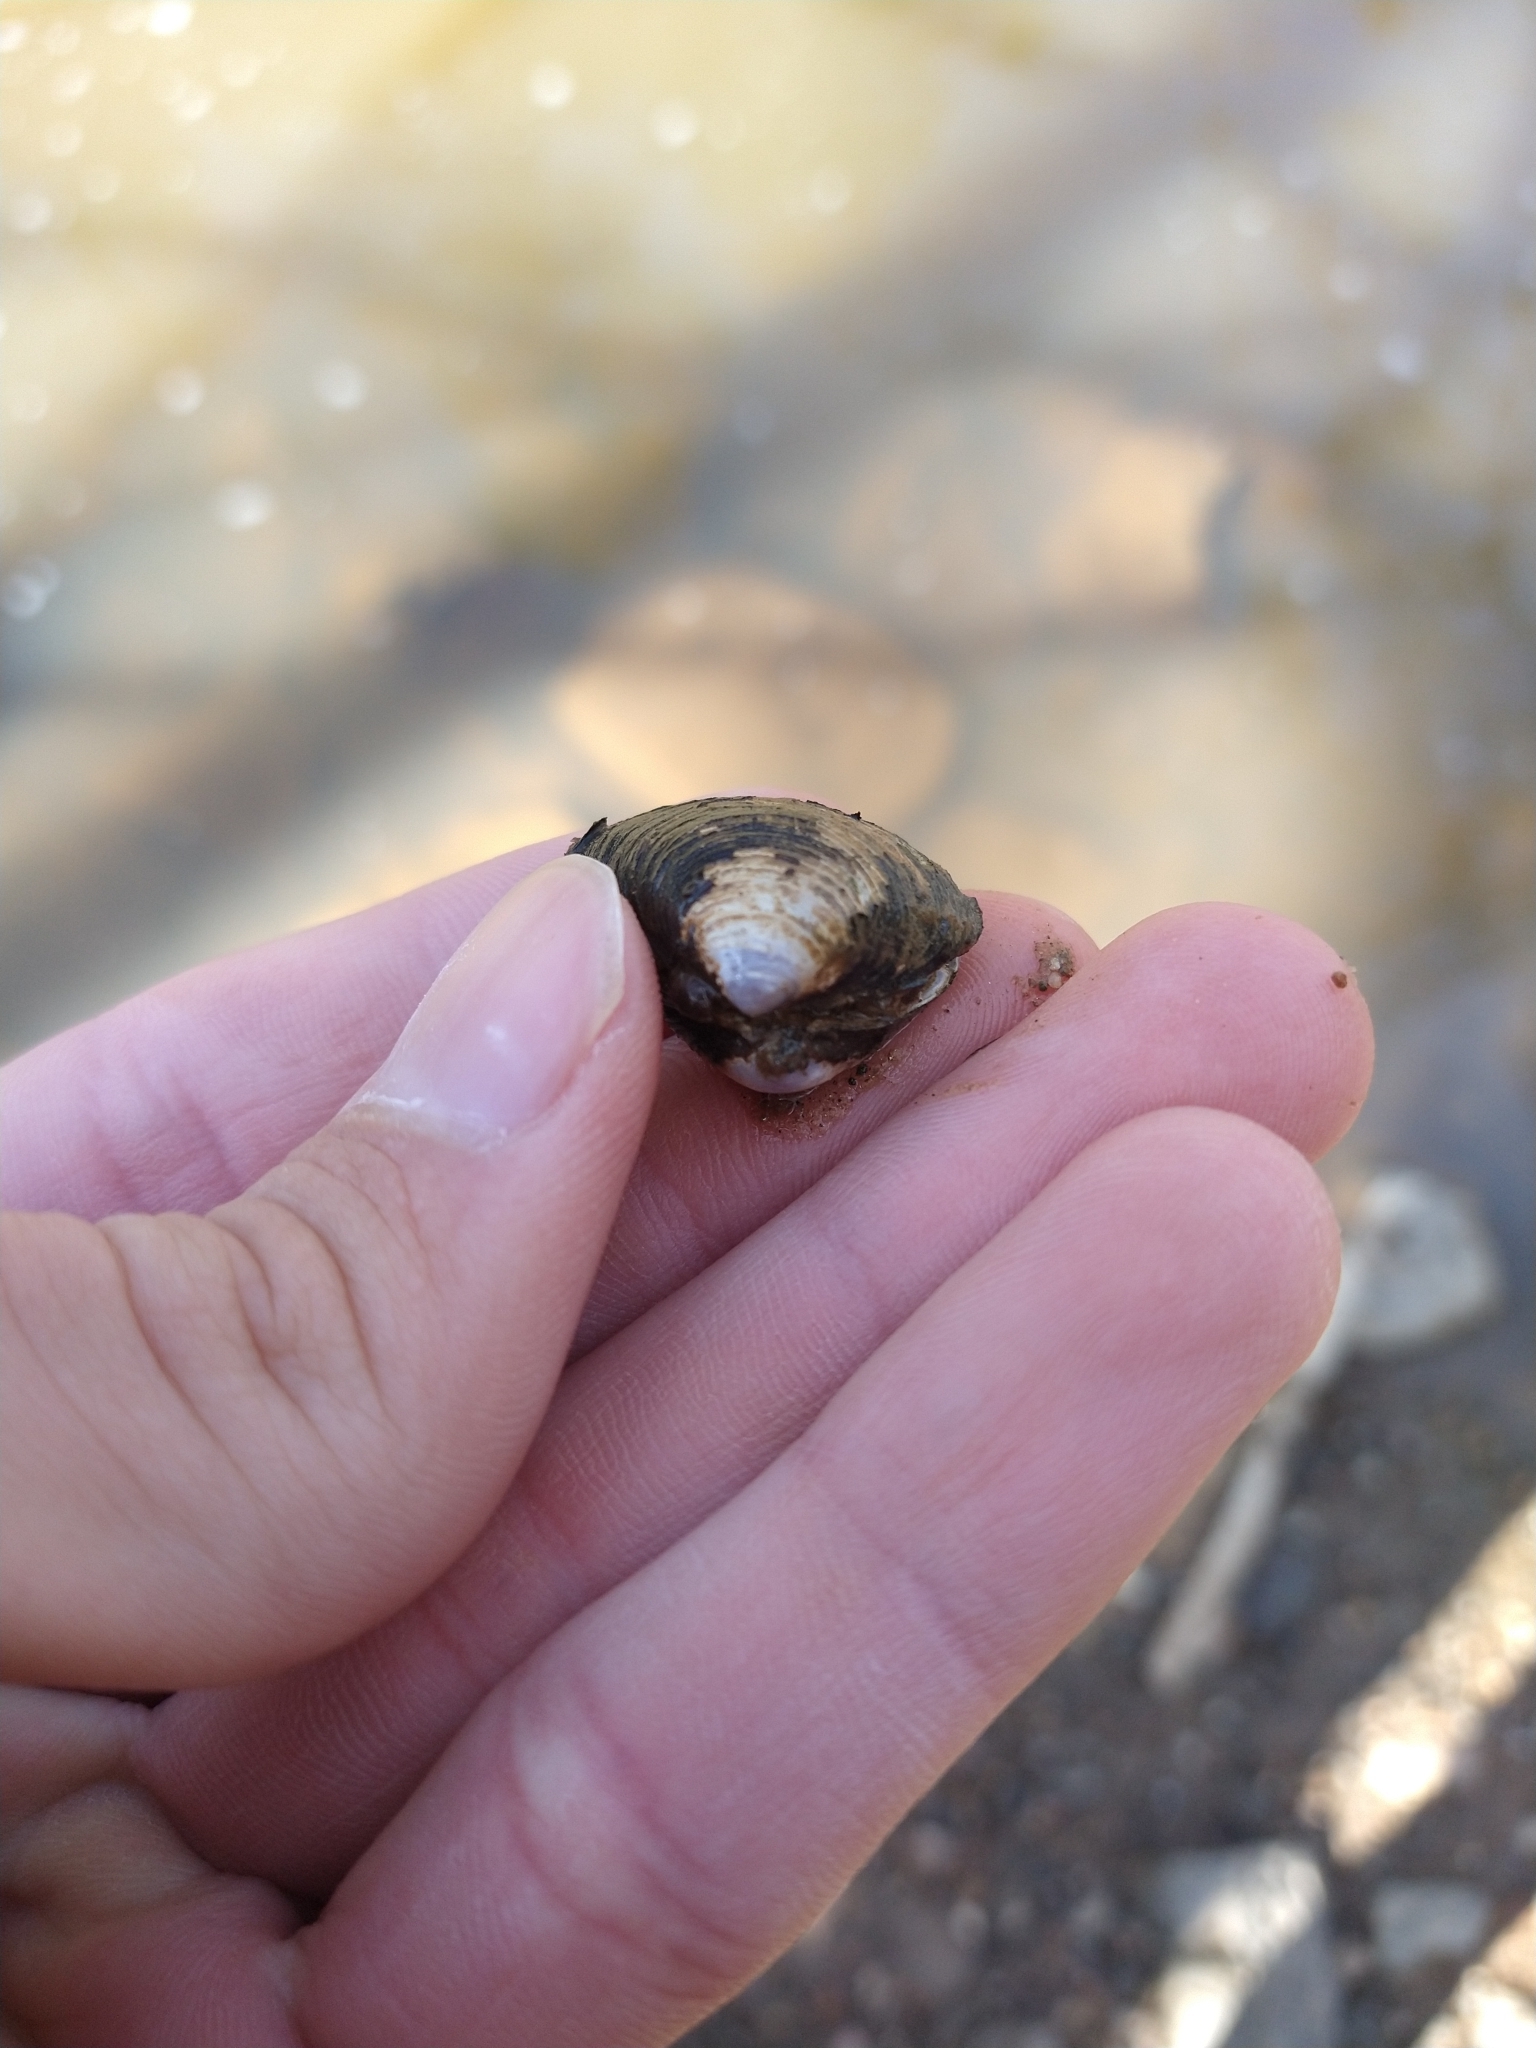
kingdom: Animalia
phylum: Mollusca
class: Bivalvia
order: Venerida
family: Cyrenidae
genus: Corbicula
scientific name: Corbicula fluminea
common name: Asian clam
